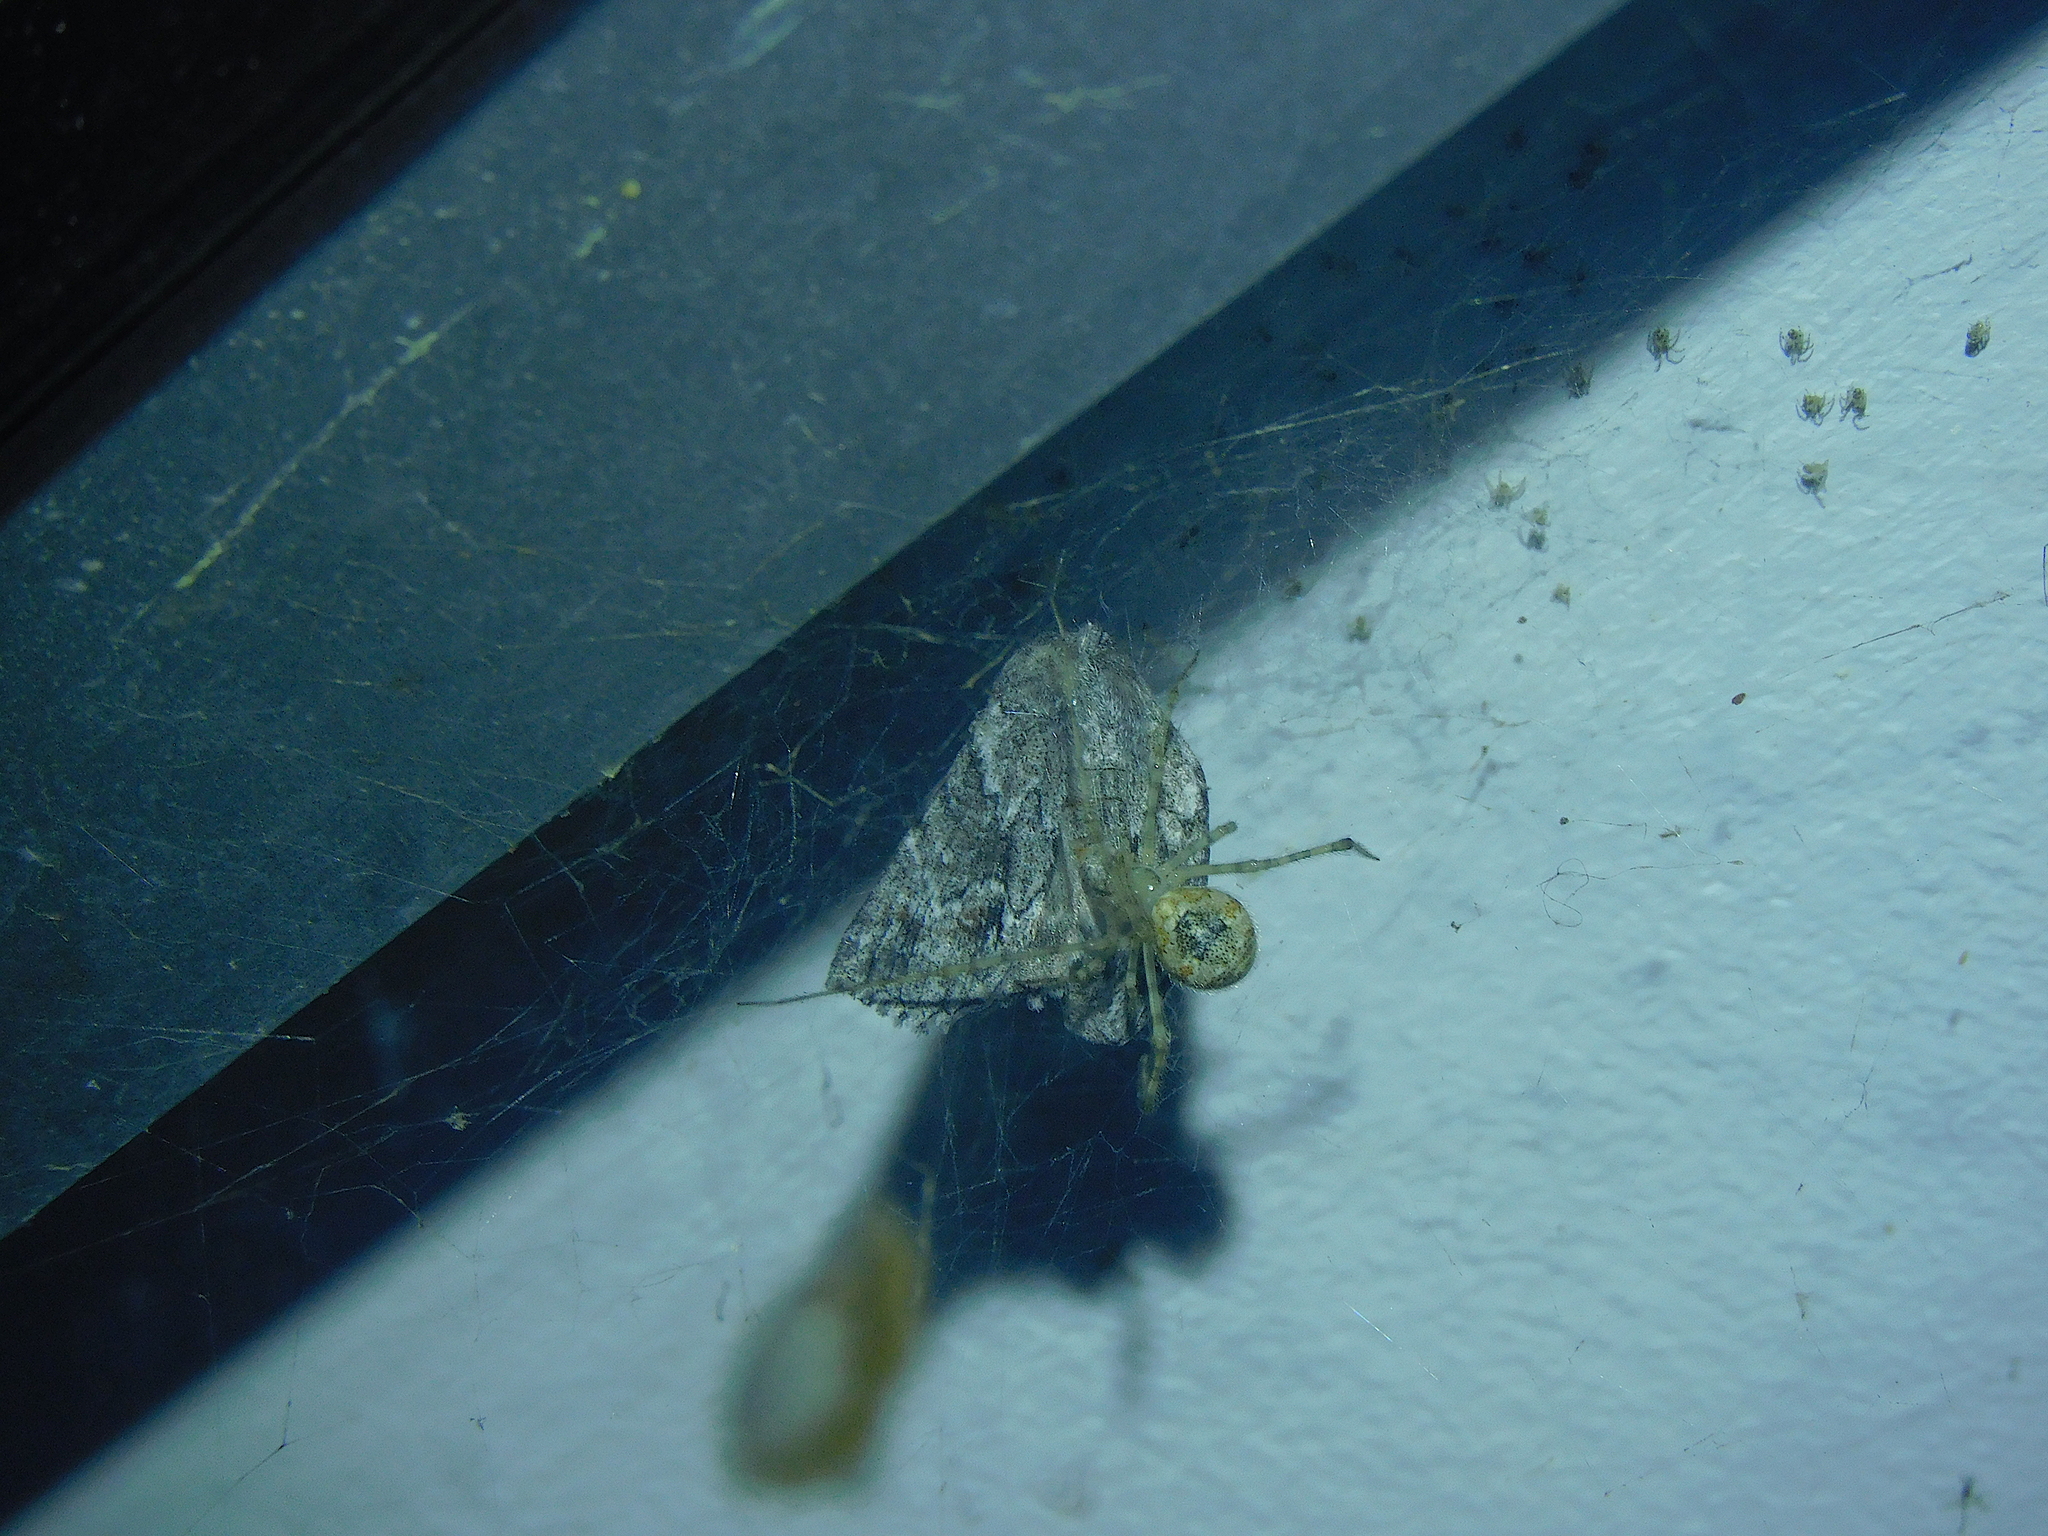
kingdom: Animalia
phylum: Arthropoda
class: Arachnida
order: Araneae
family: Theridiidae
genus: Cryptachaea
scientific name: Cryptachaea gigantipes
